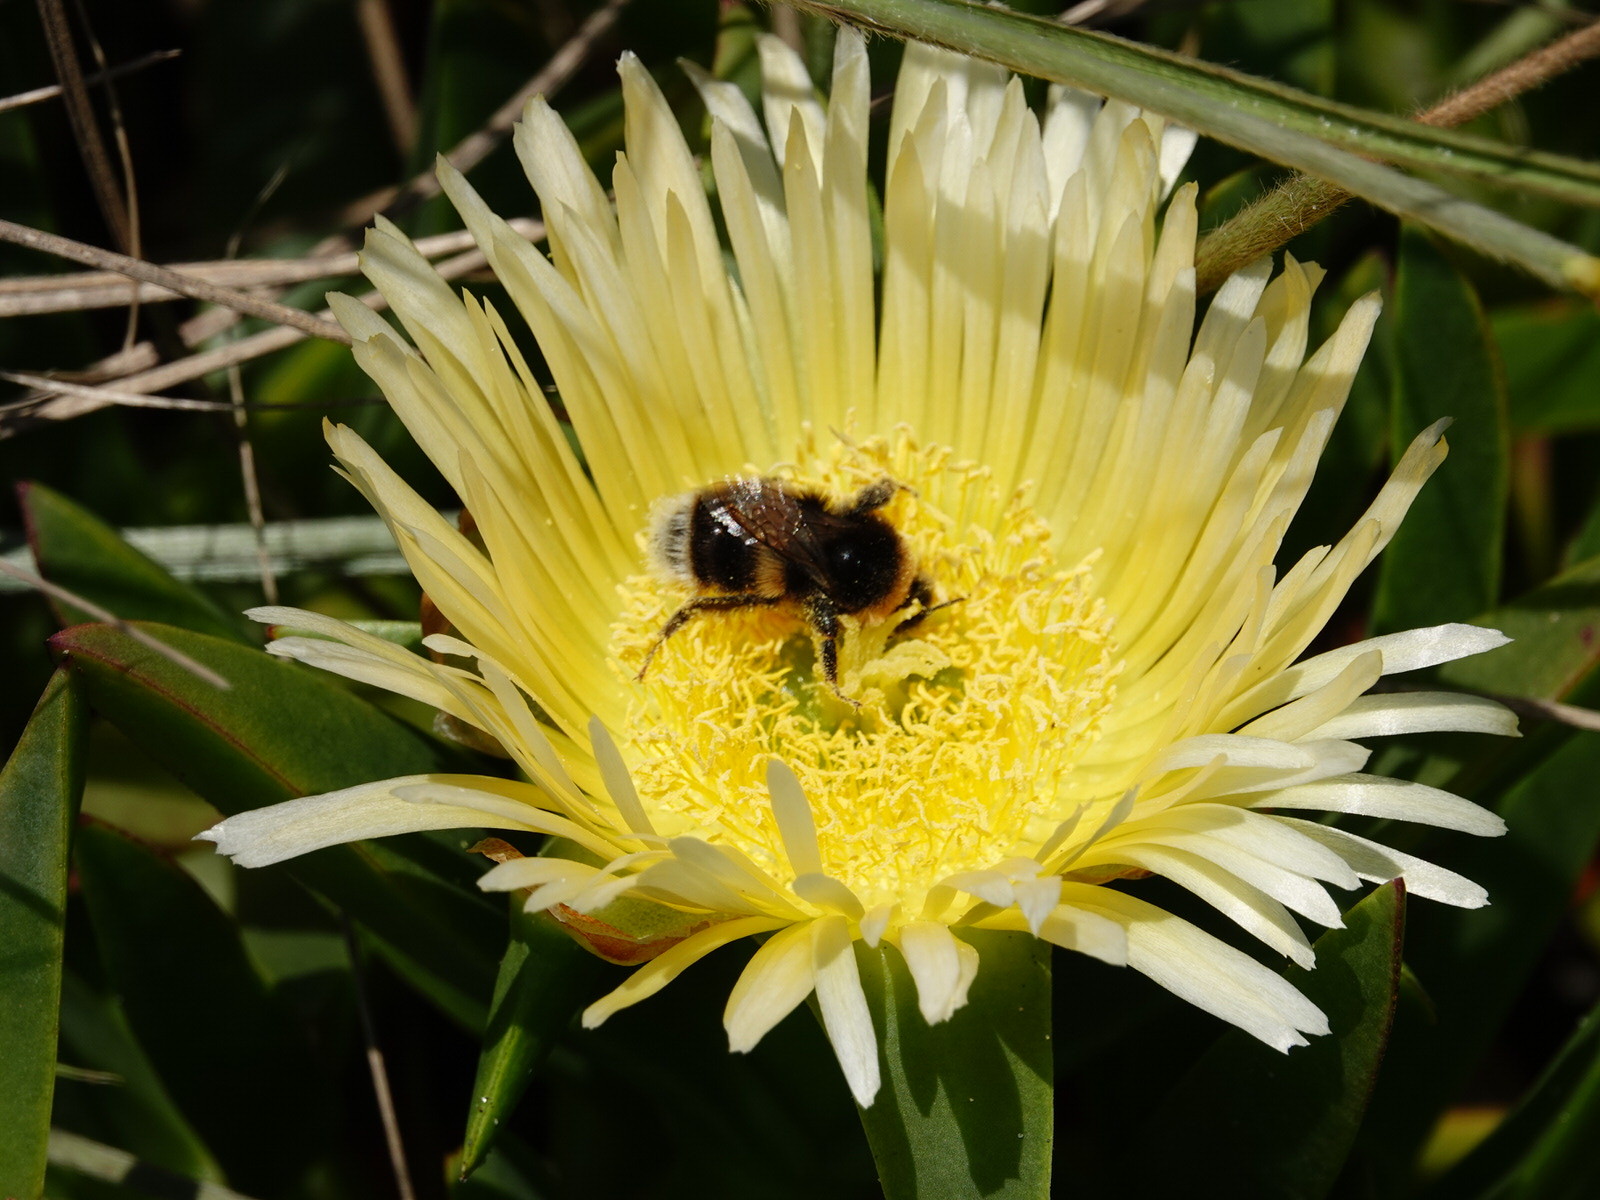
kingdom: Animalia
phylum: Arthropoda
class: Insecta
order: Hymenoptera
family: Apidae
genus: Bombus
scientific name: Bombus terrestris
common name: Buff-tailed bumblebee
